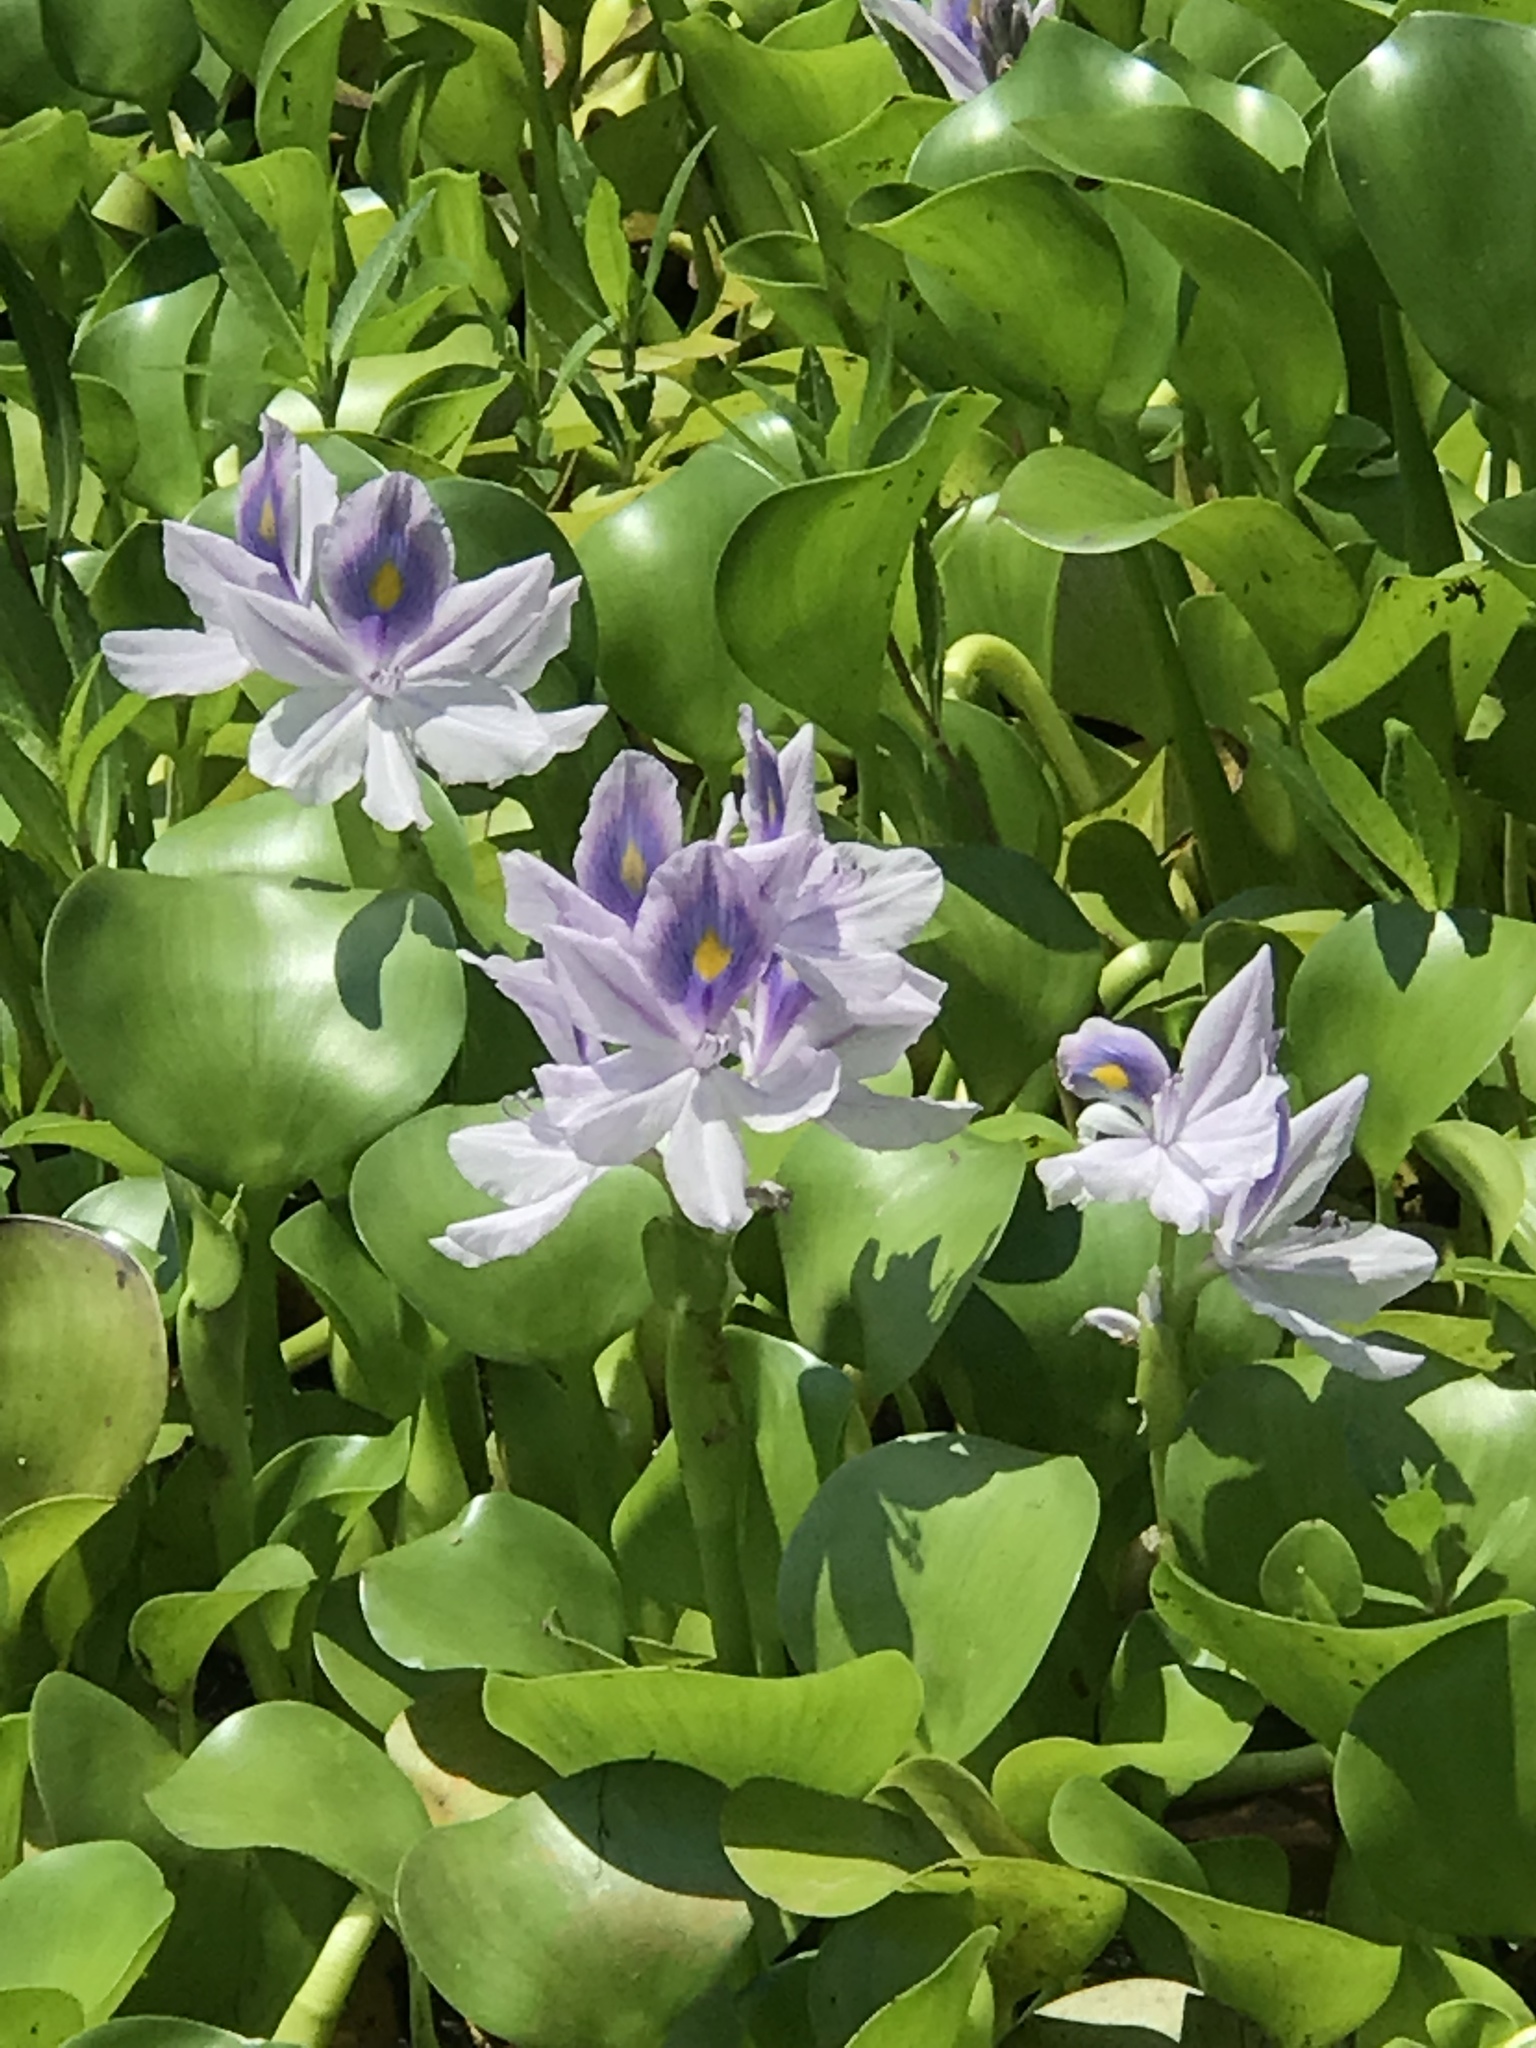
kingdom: Plantae
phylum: Tracheophyta
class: Liliopsida
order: Commelinales
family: Pontederiaceae
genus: Pontederia
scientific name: Pontederia crassipes
